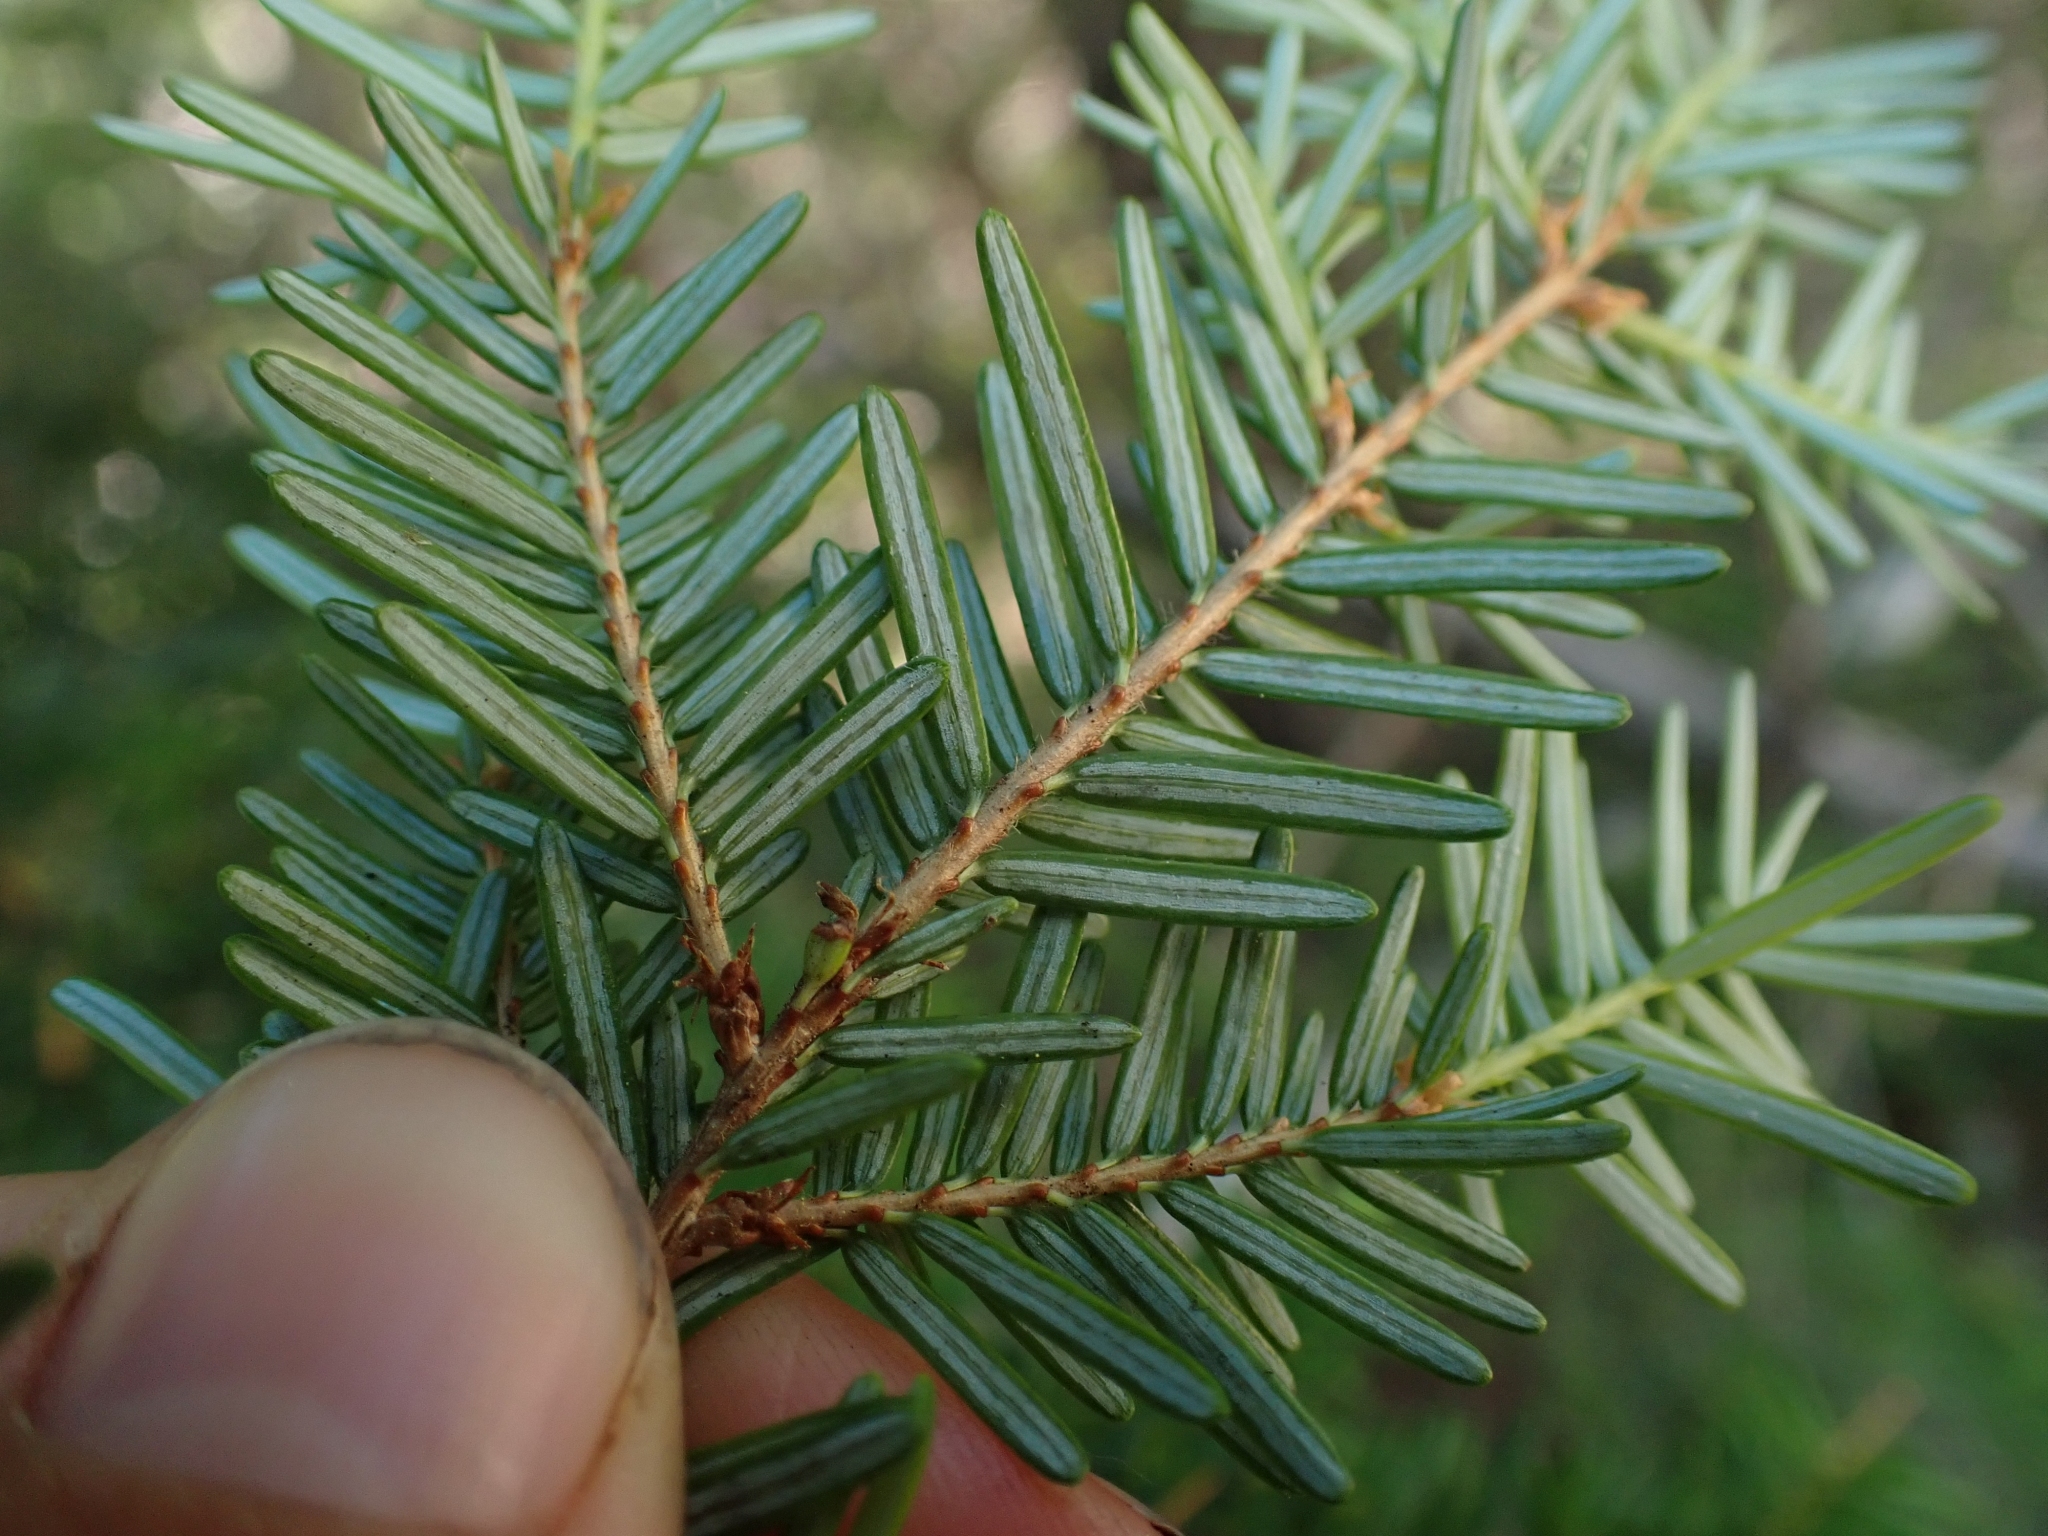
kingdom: Plantae
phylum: Tracheophyta
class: Pinopsida
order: Pinales
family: Pinaceae
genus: Tsuga
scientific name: Tsuga heterophylla
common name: Western hemlock
